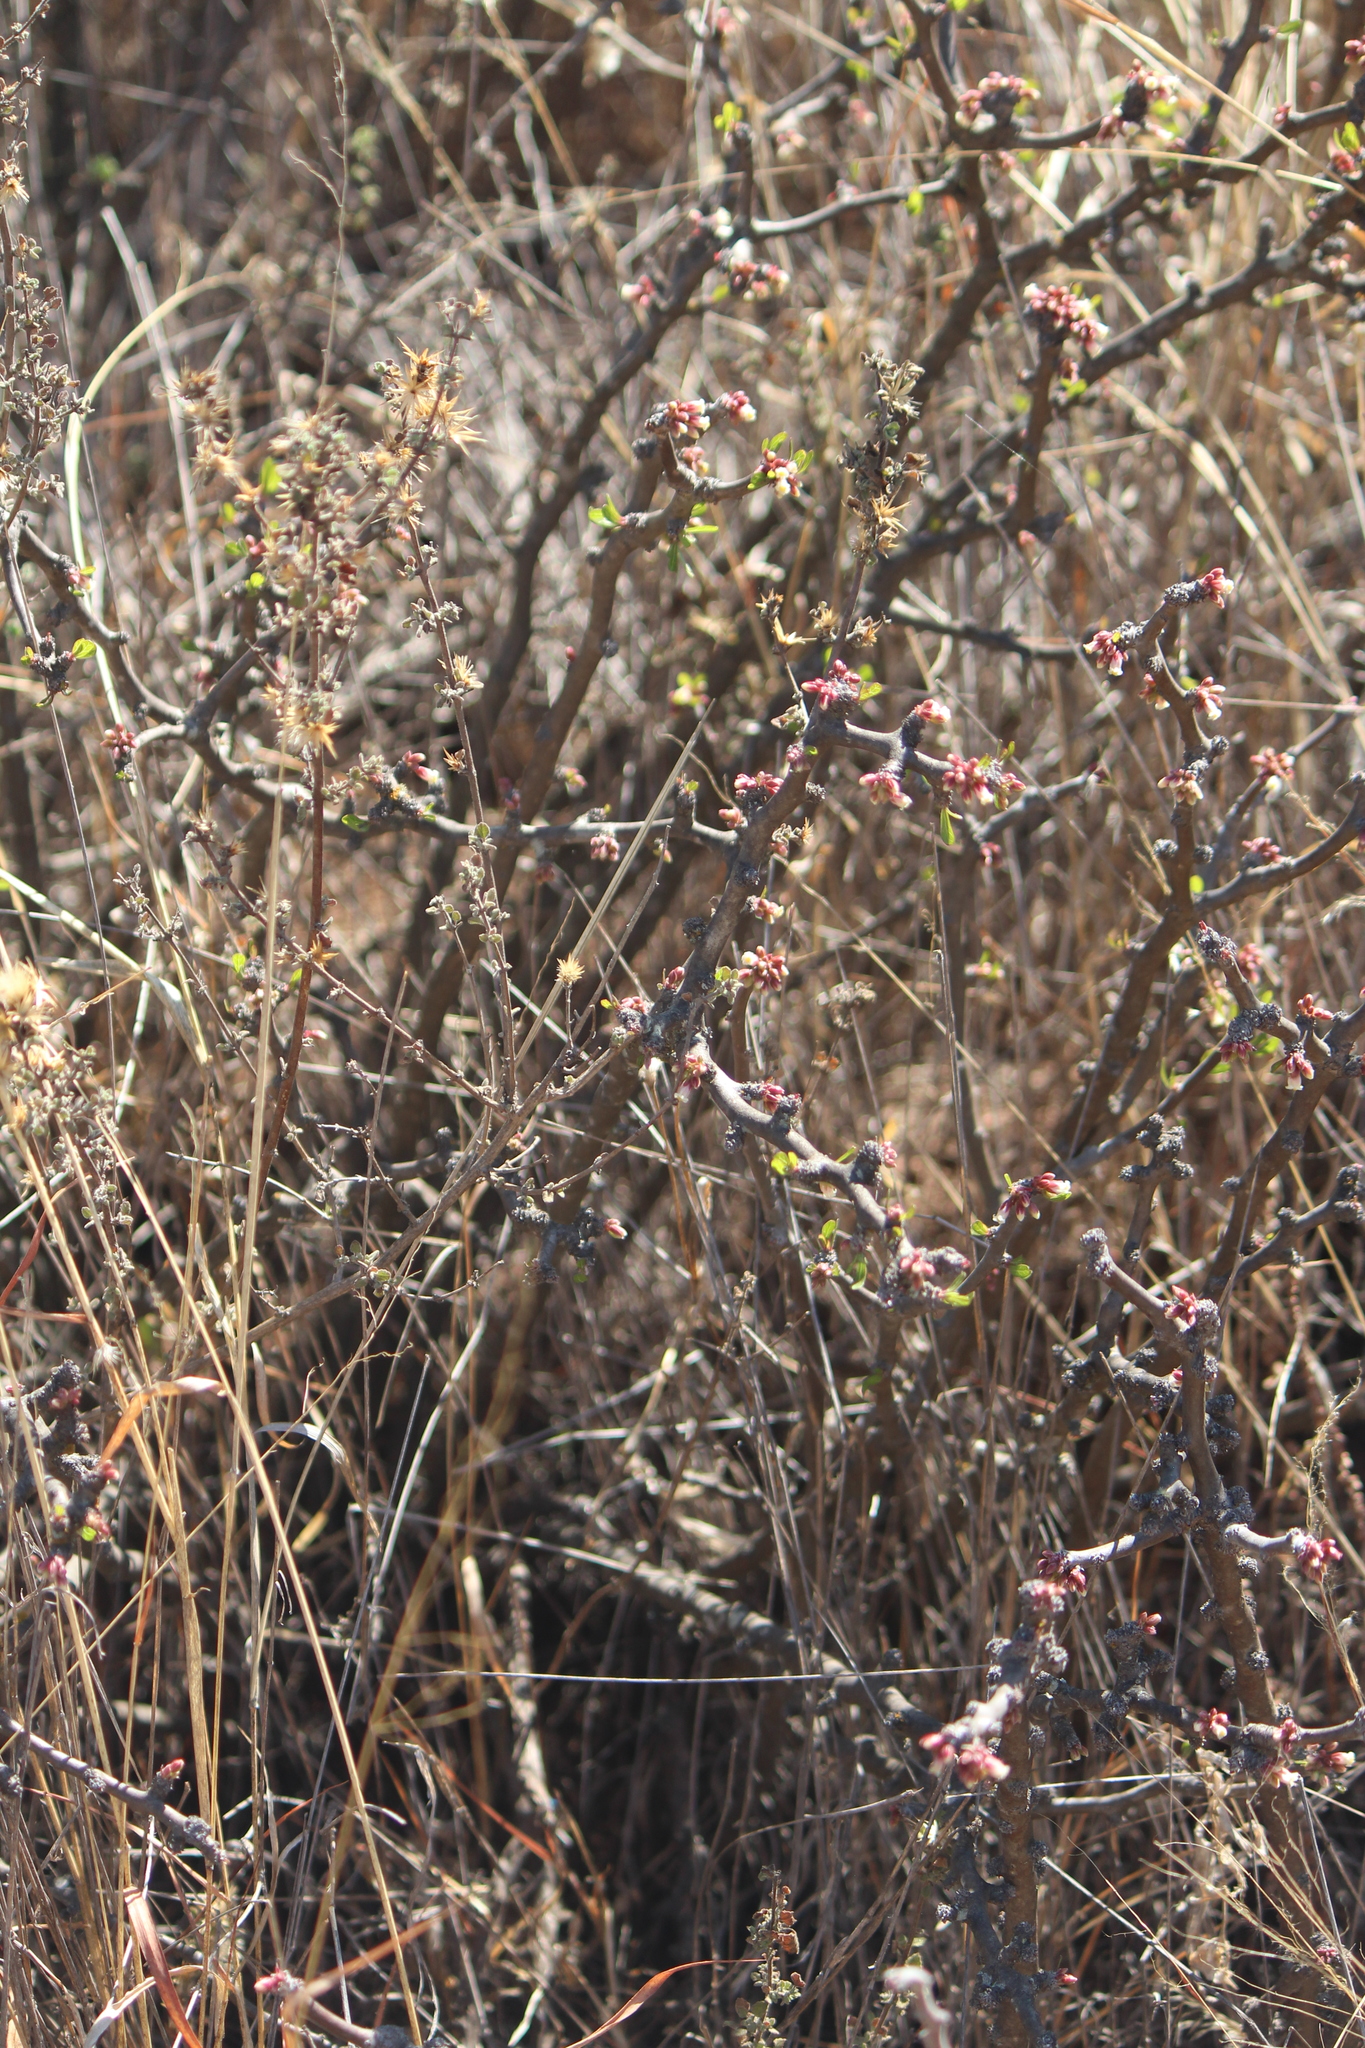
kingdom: Plantae
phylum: Tracheophyta
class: Magnoliopsida
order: Malpighiales
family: Euphorbiaceae
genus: Jatropha
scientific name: Jatropha dioica
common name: Leatherstem
